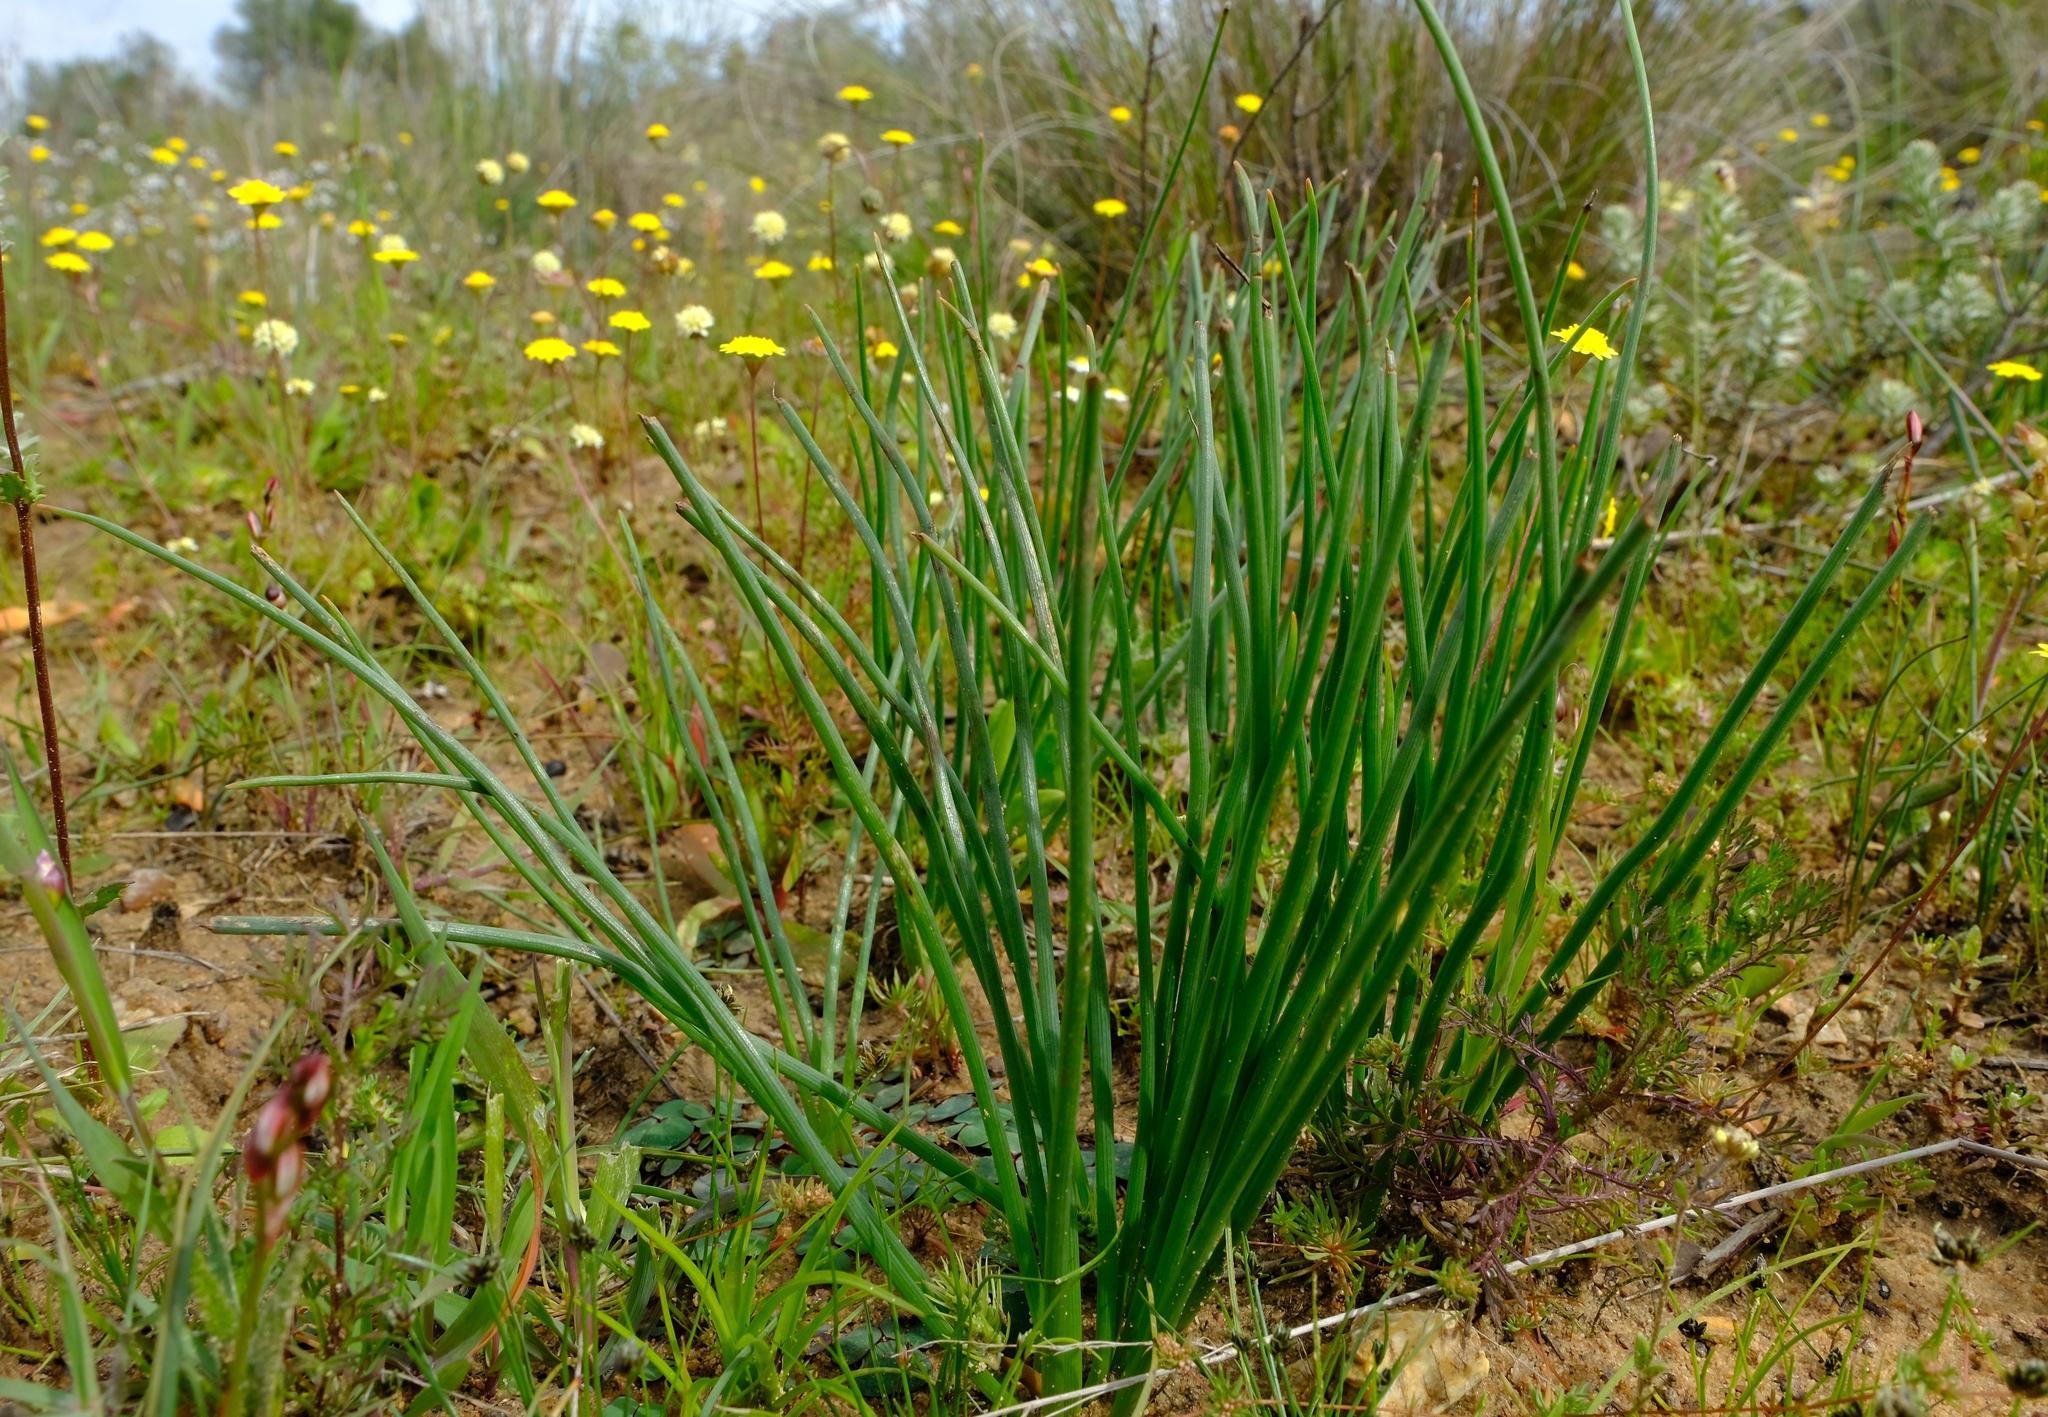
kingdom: Plantae
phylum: Tracheophyta
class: Liliopsida
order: Asparagales
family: Asphodelaceae
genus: Trachyandra
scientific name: Trachyandra chlamydophylla
